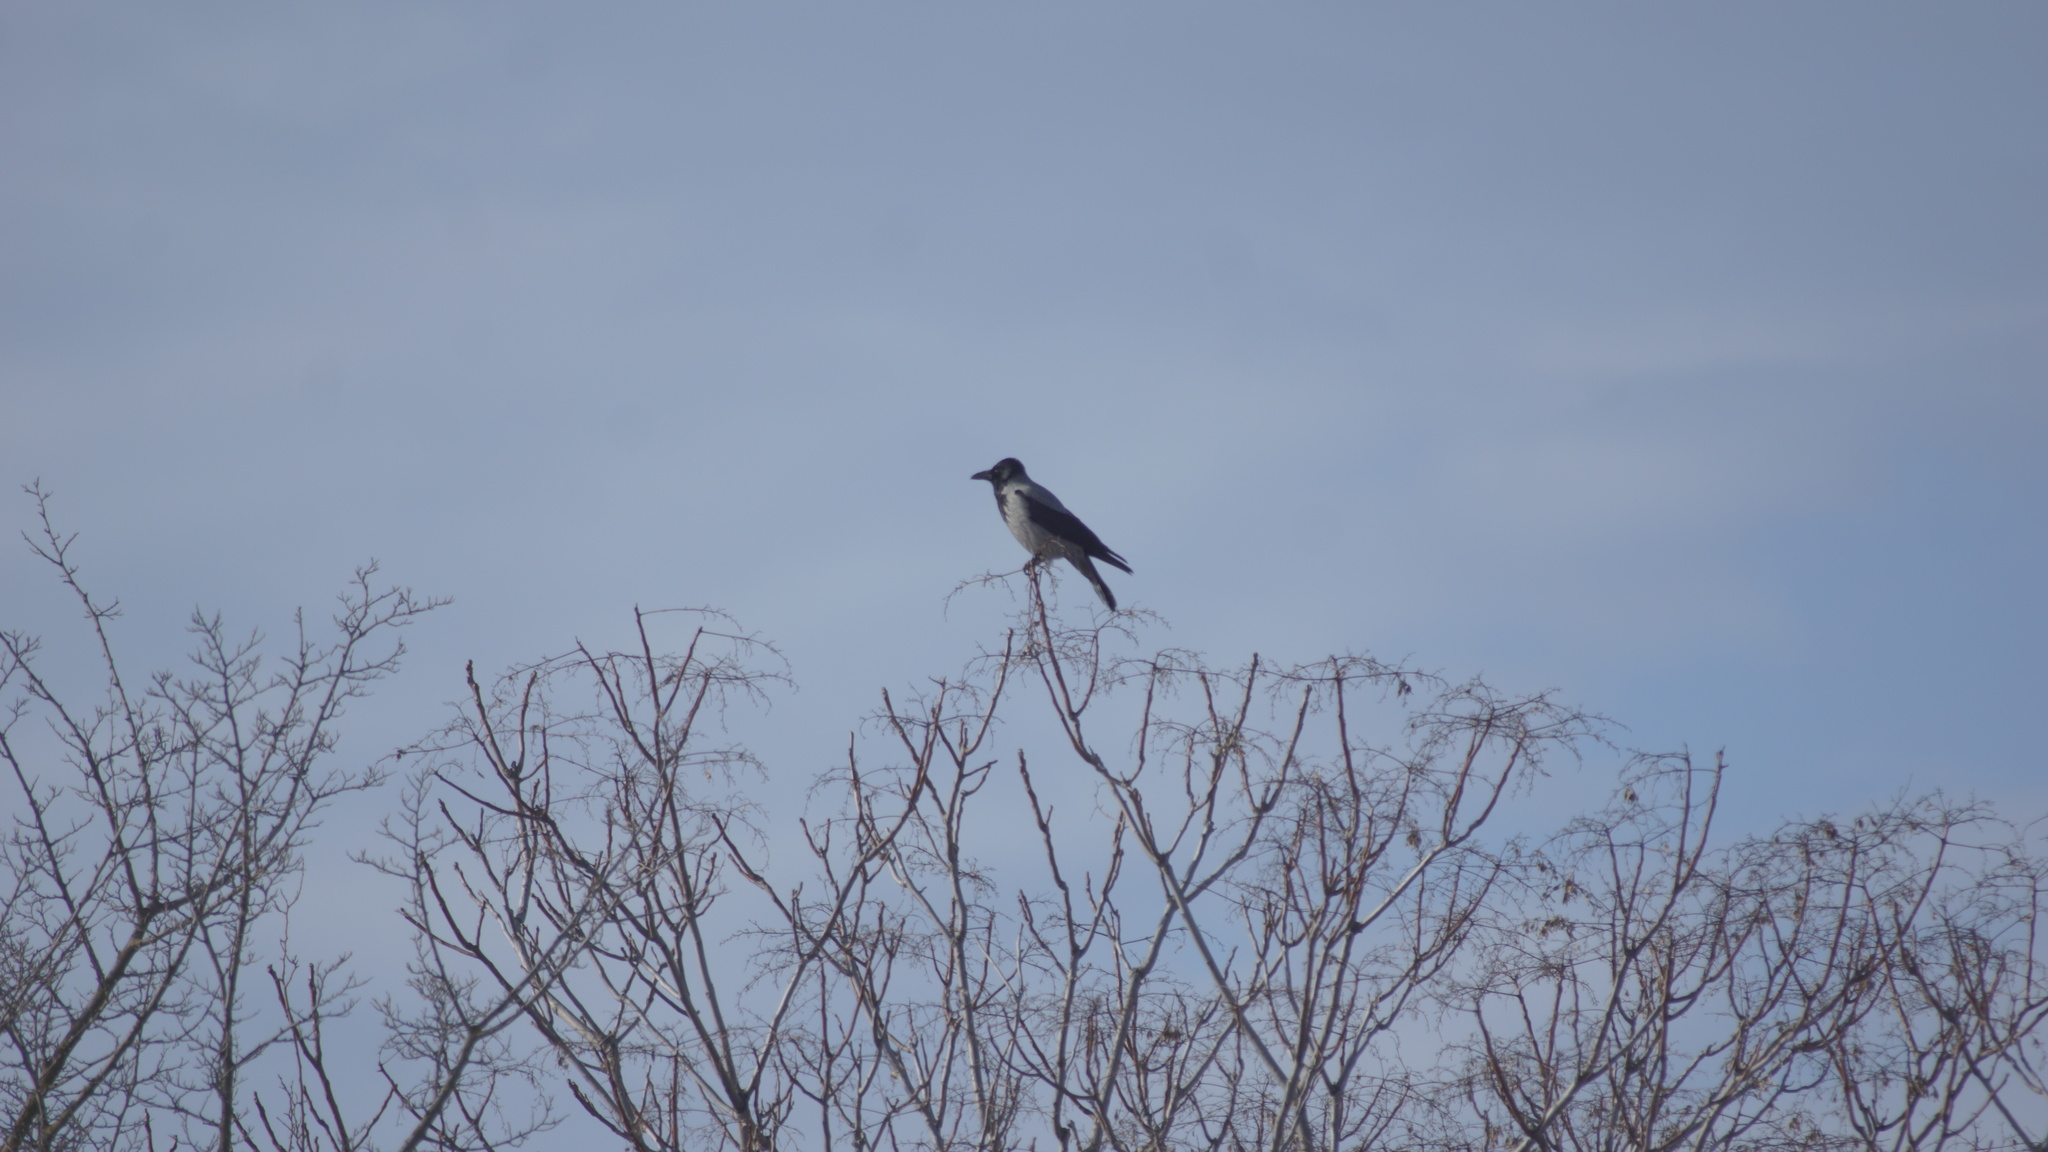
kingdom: Animalia
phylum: Chordata
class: Aves
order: Passeriformes
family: Corvidae
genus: Corvus
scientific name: Corvus cornix
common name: Hooded crow
